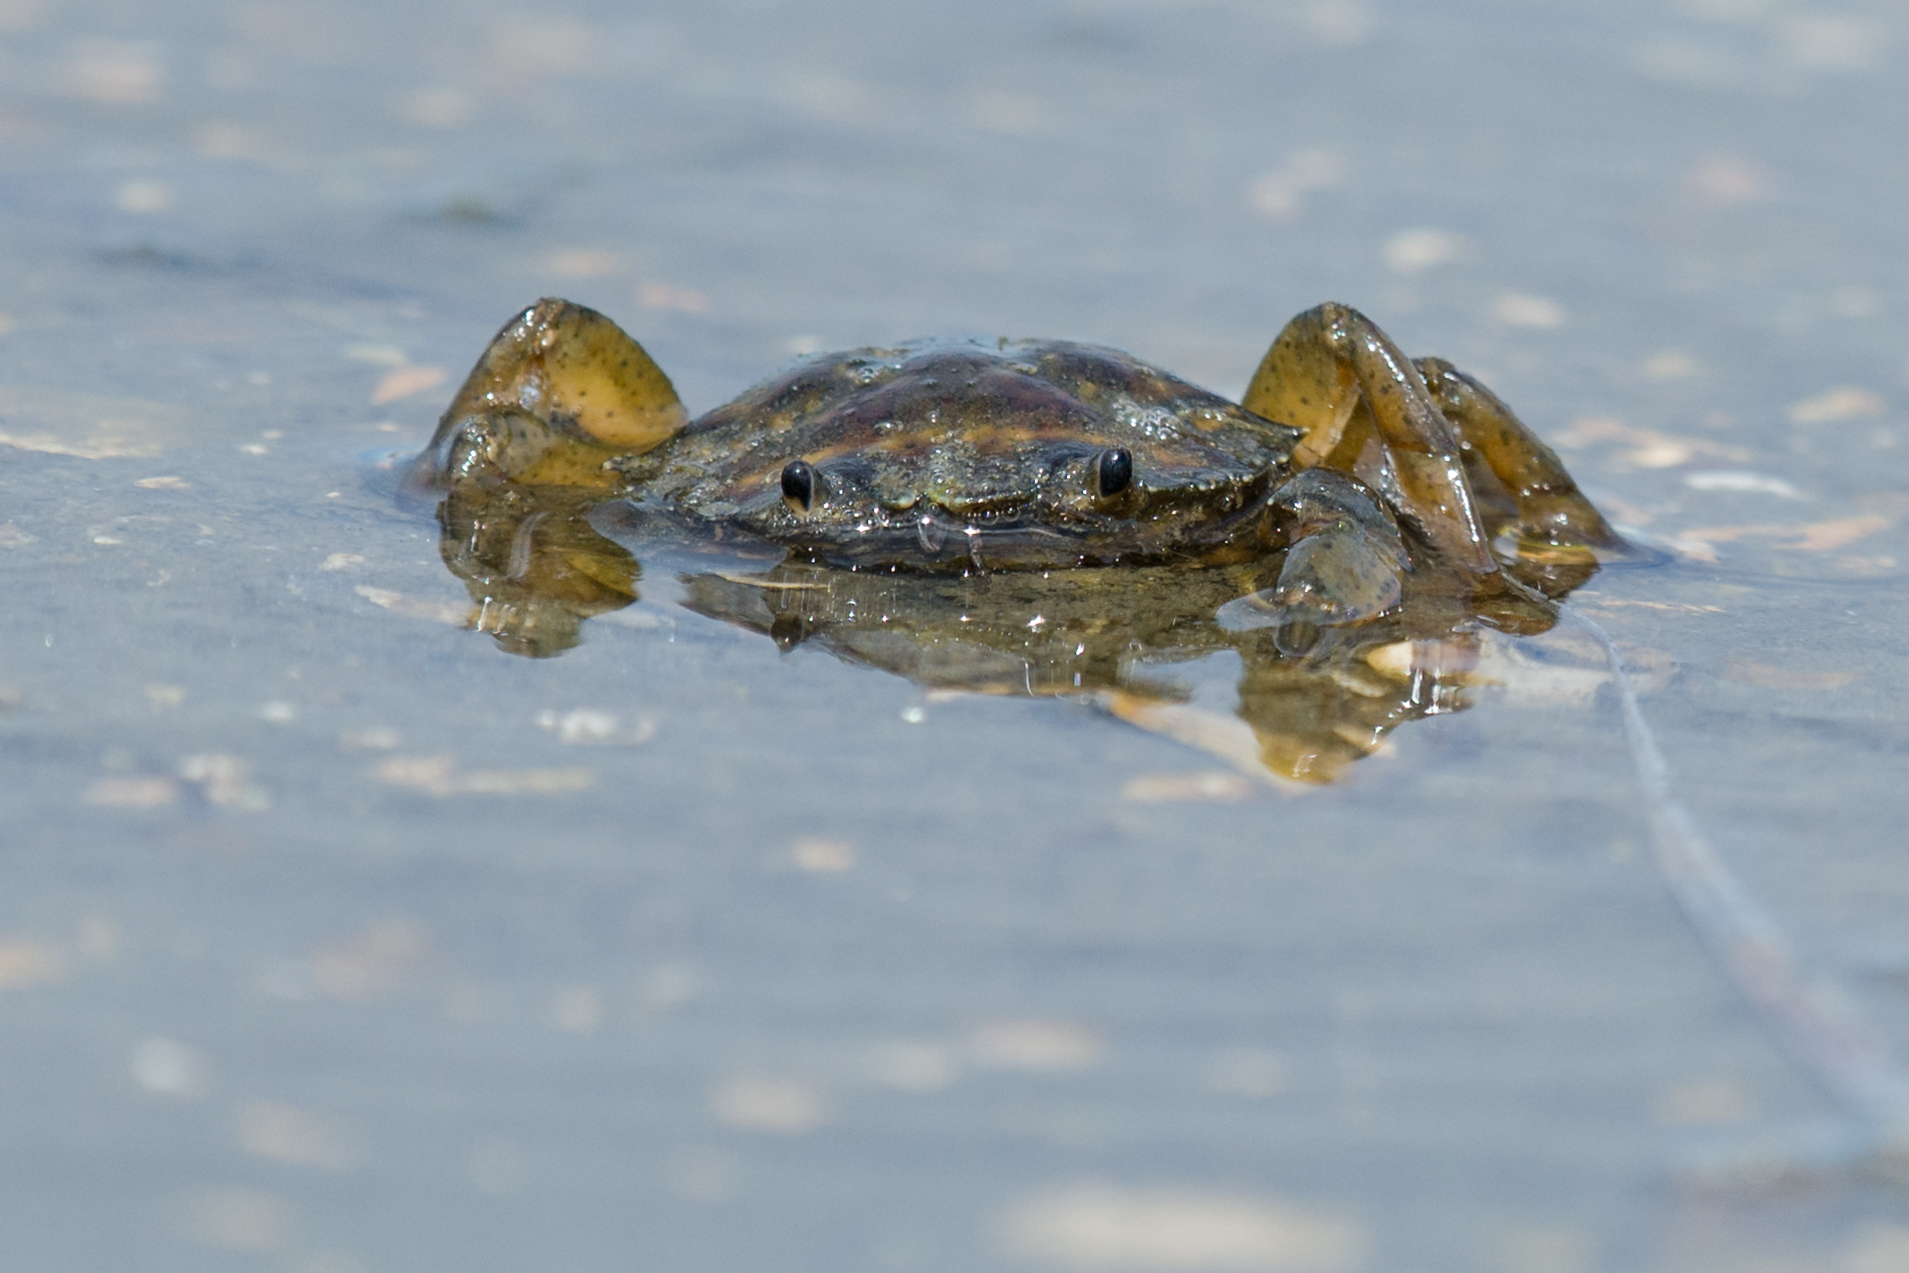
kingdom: Animalia
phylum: Arthropoda
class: Malacostraca
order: Decapoda
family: Carcinidae
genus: Carcinus
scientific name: Carcinus aestuarii
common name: Mediterranean green crab
